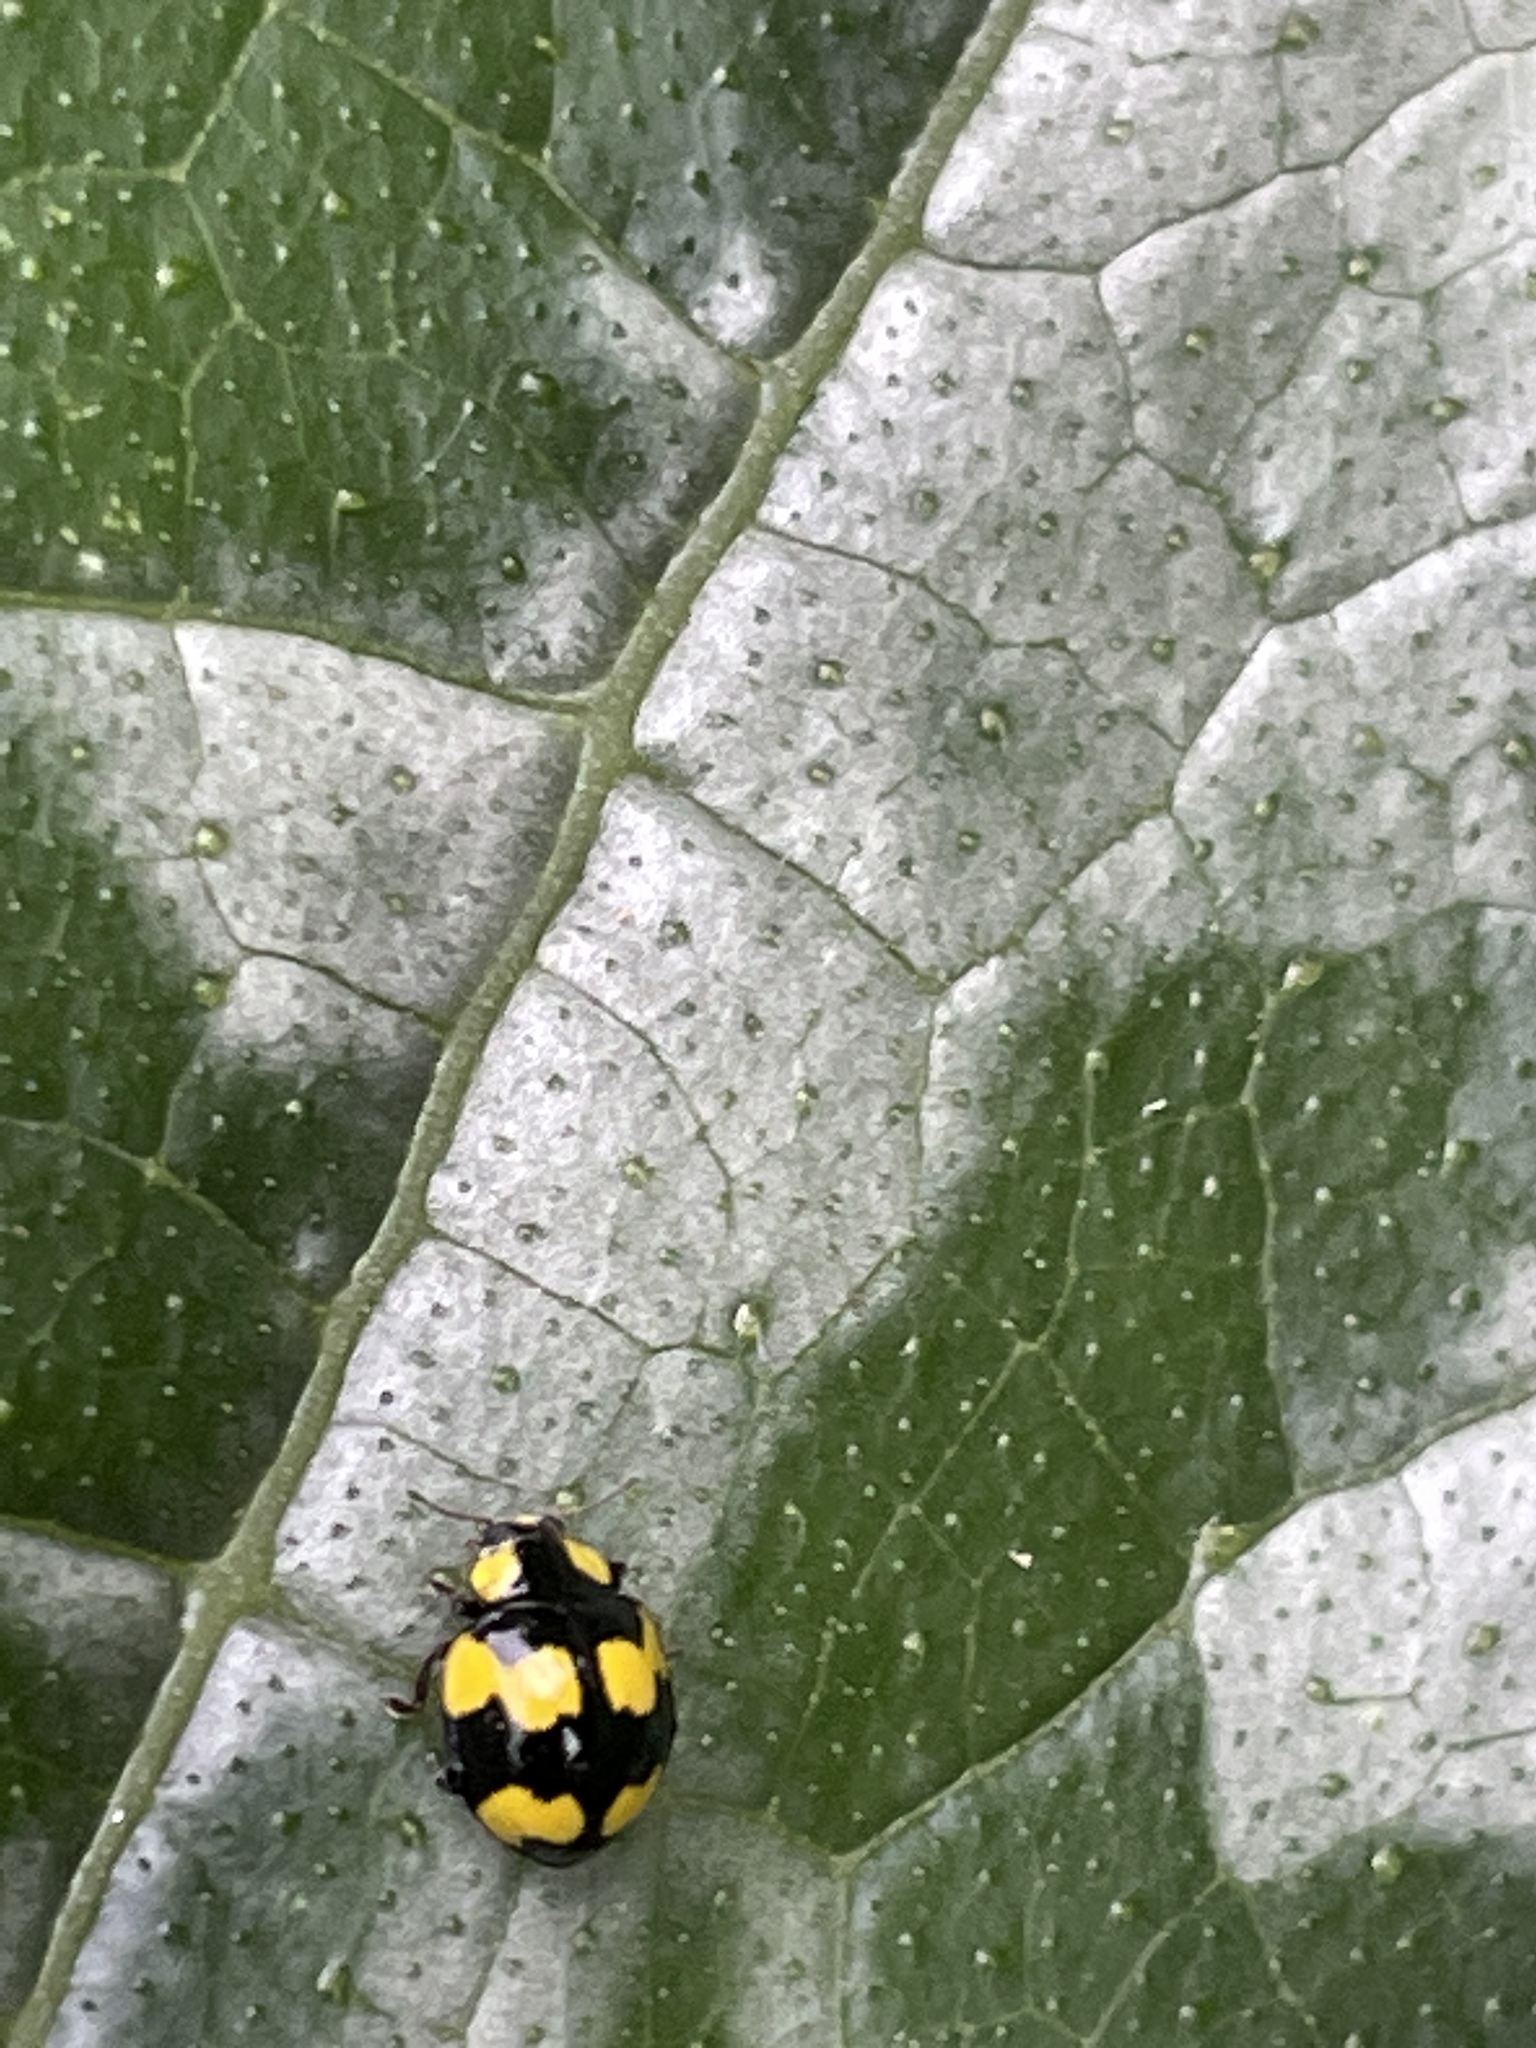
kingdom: Animalia
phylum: Arthropoda
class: Insecta
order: Coleoptera
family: Coccinellidae
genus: Illeis
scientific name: Illeis galbula
